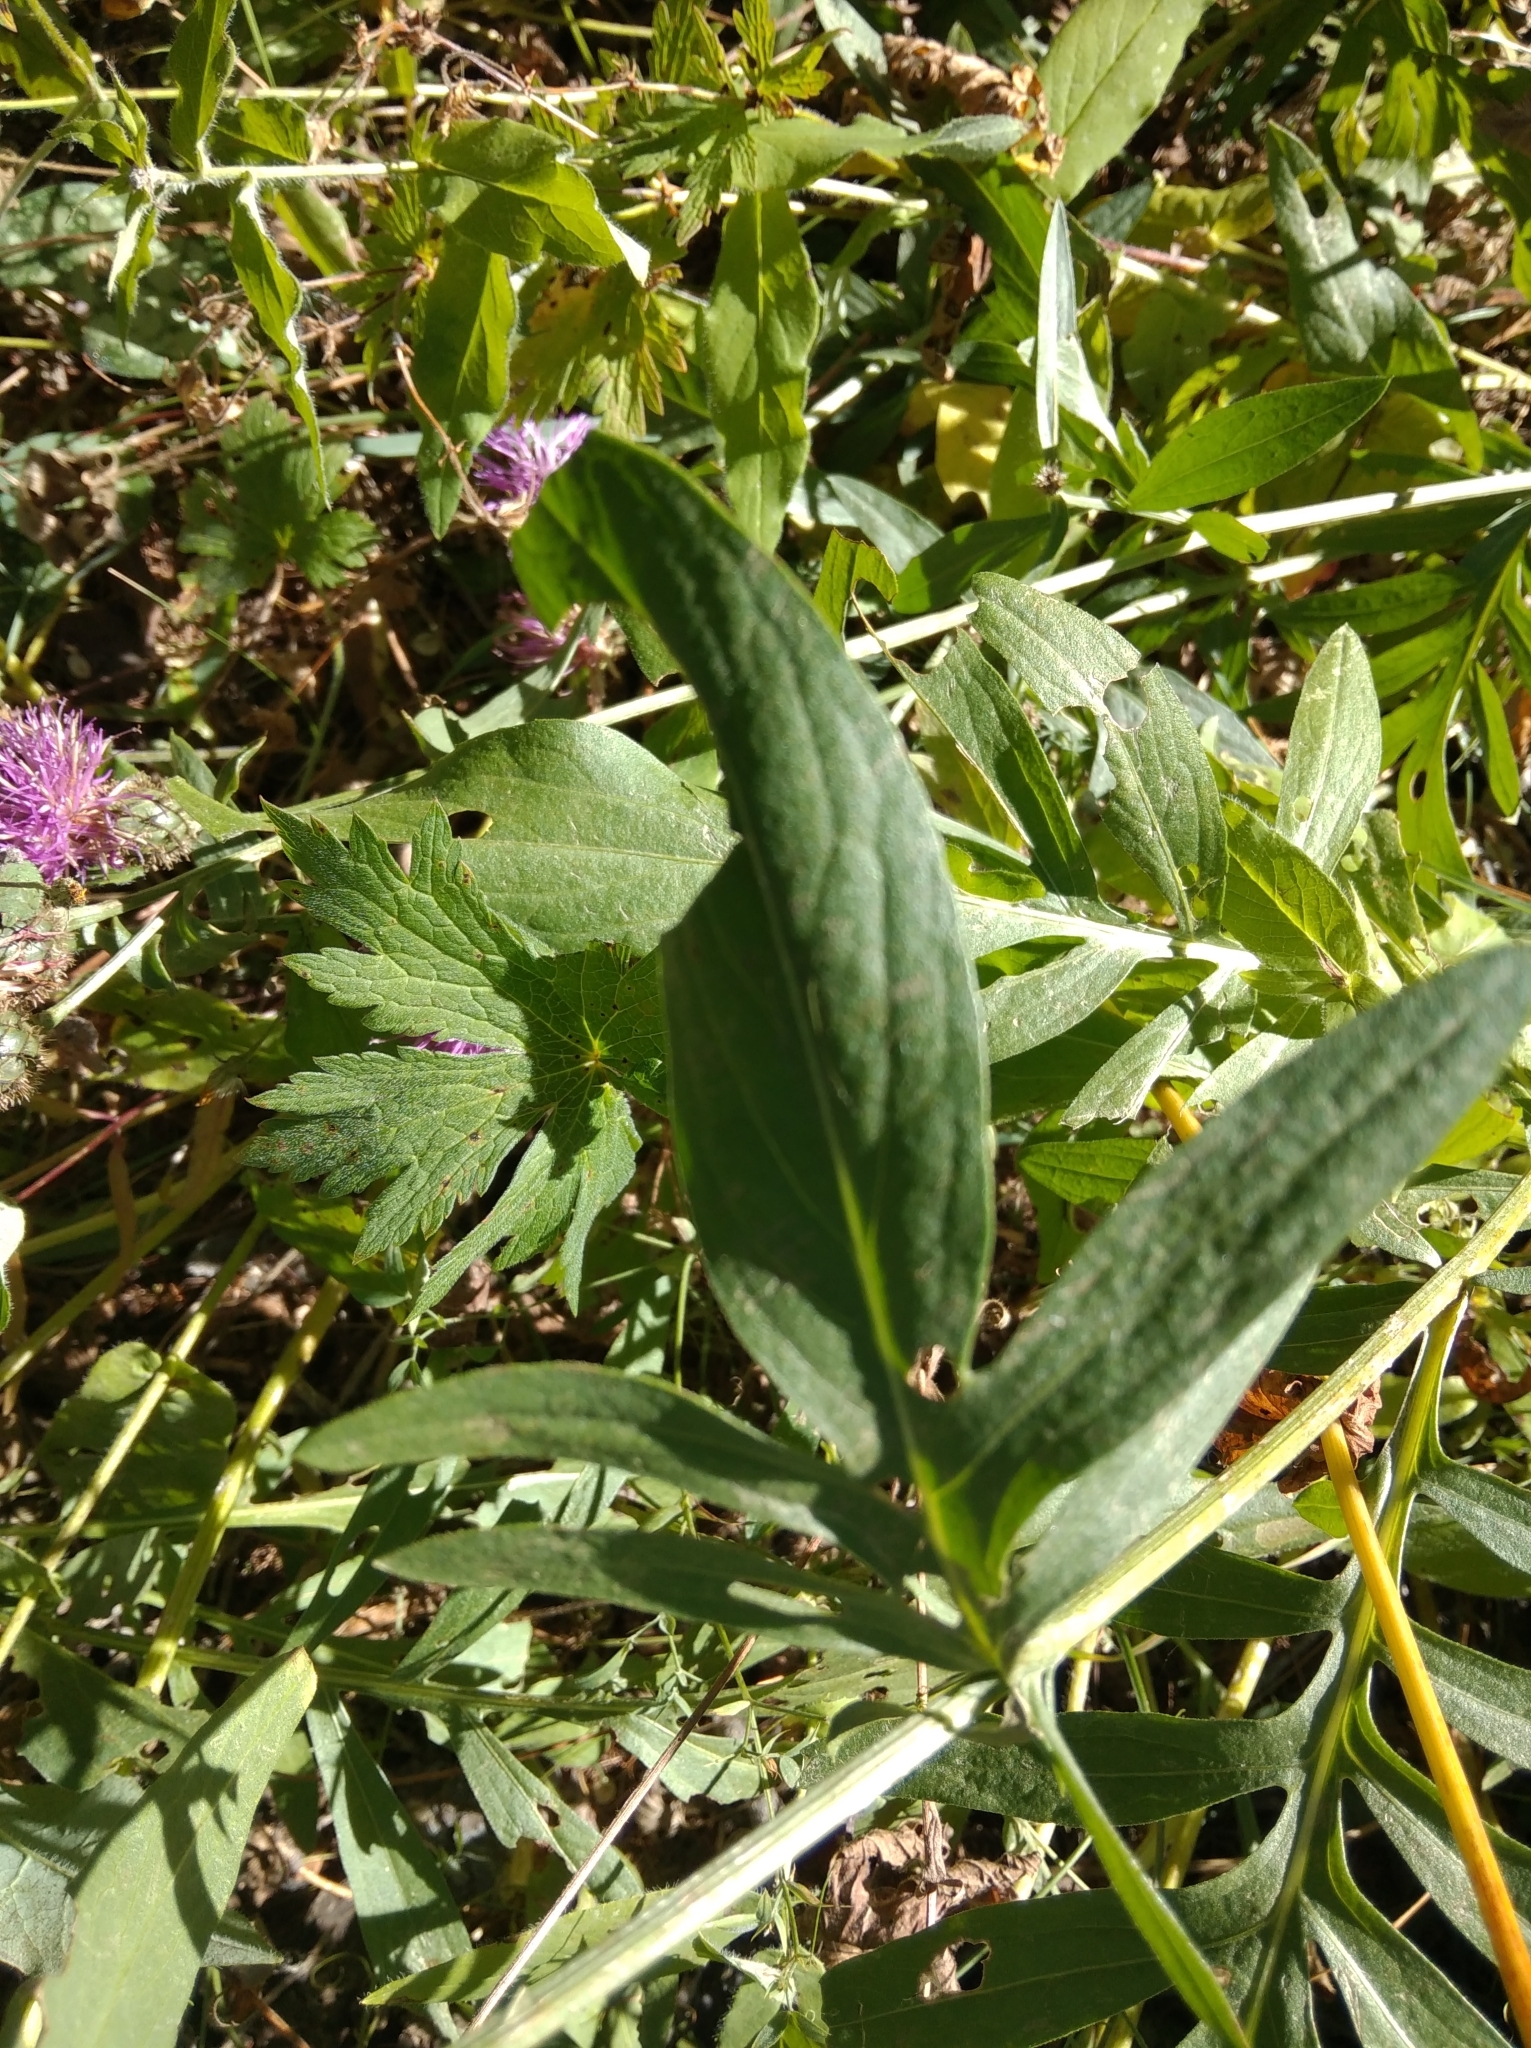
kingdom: Plantae
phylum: Tracheophyta
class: Magnoliopsida
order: Asterales
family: Asteraceae
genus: Centaurea
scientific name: Centaurea scabiosa
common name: Greater knapweed
